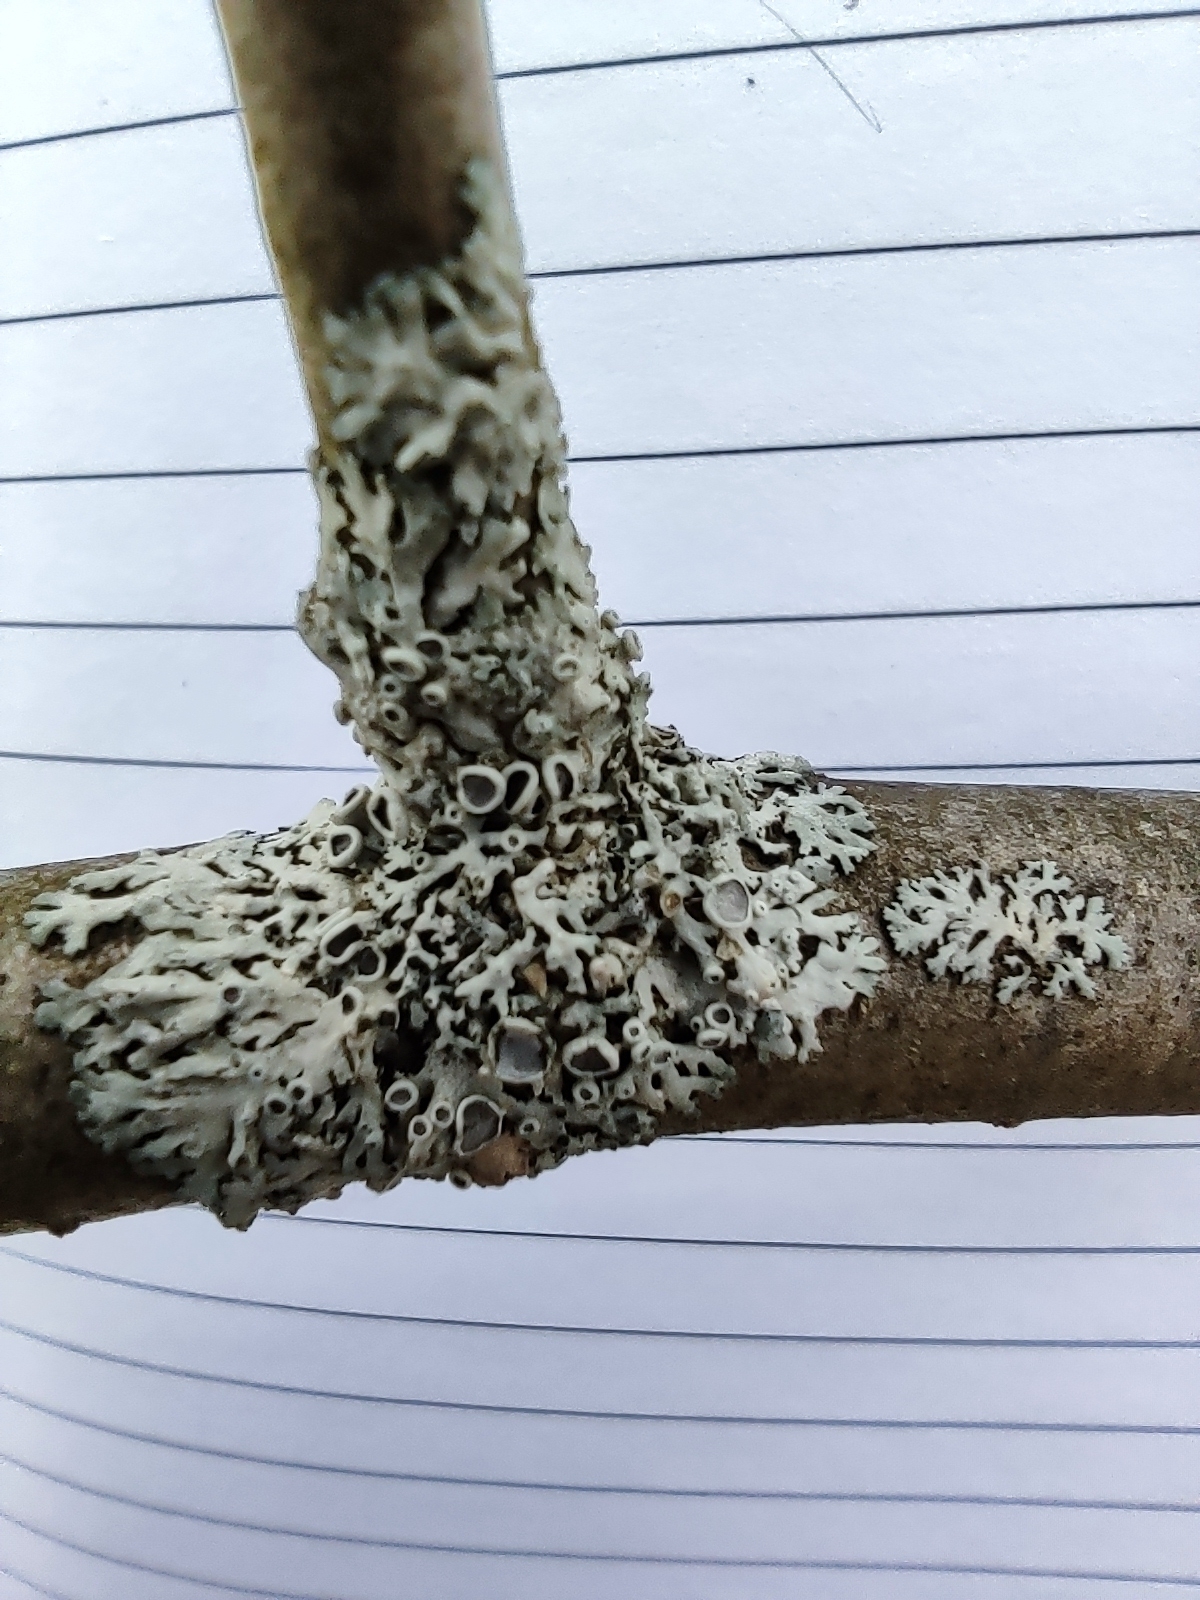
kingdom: Fungi
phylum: Ascomycota
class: Lecanoromycetes
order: Caliciales
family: Physciaceae
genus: Physcia
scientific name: Physcia stellaris
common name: Star rosette lichen
